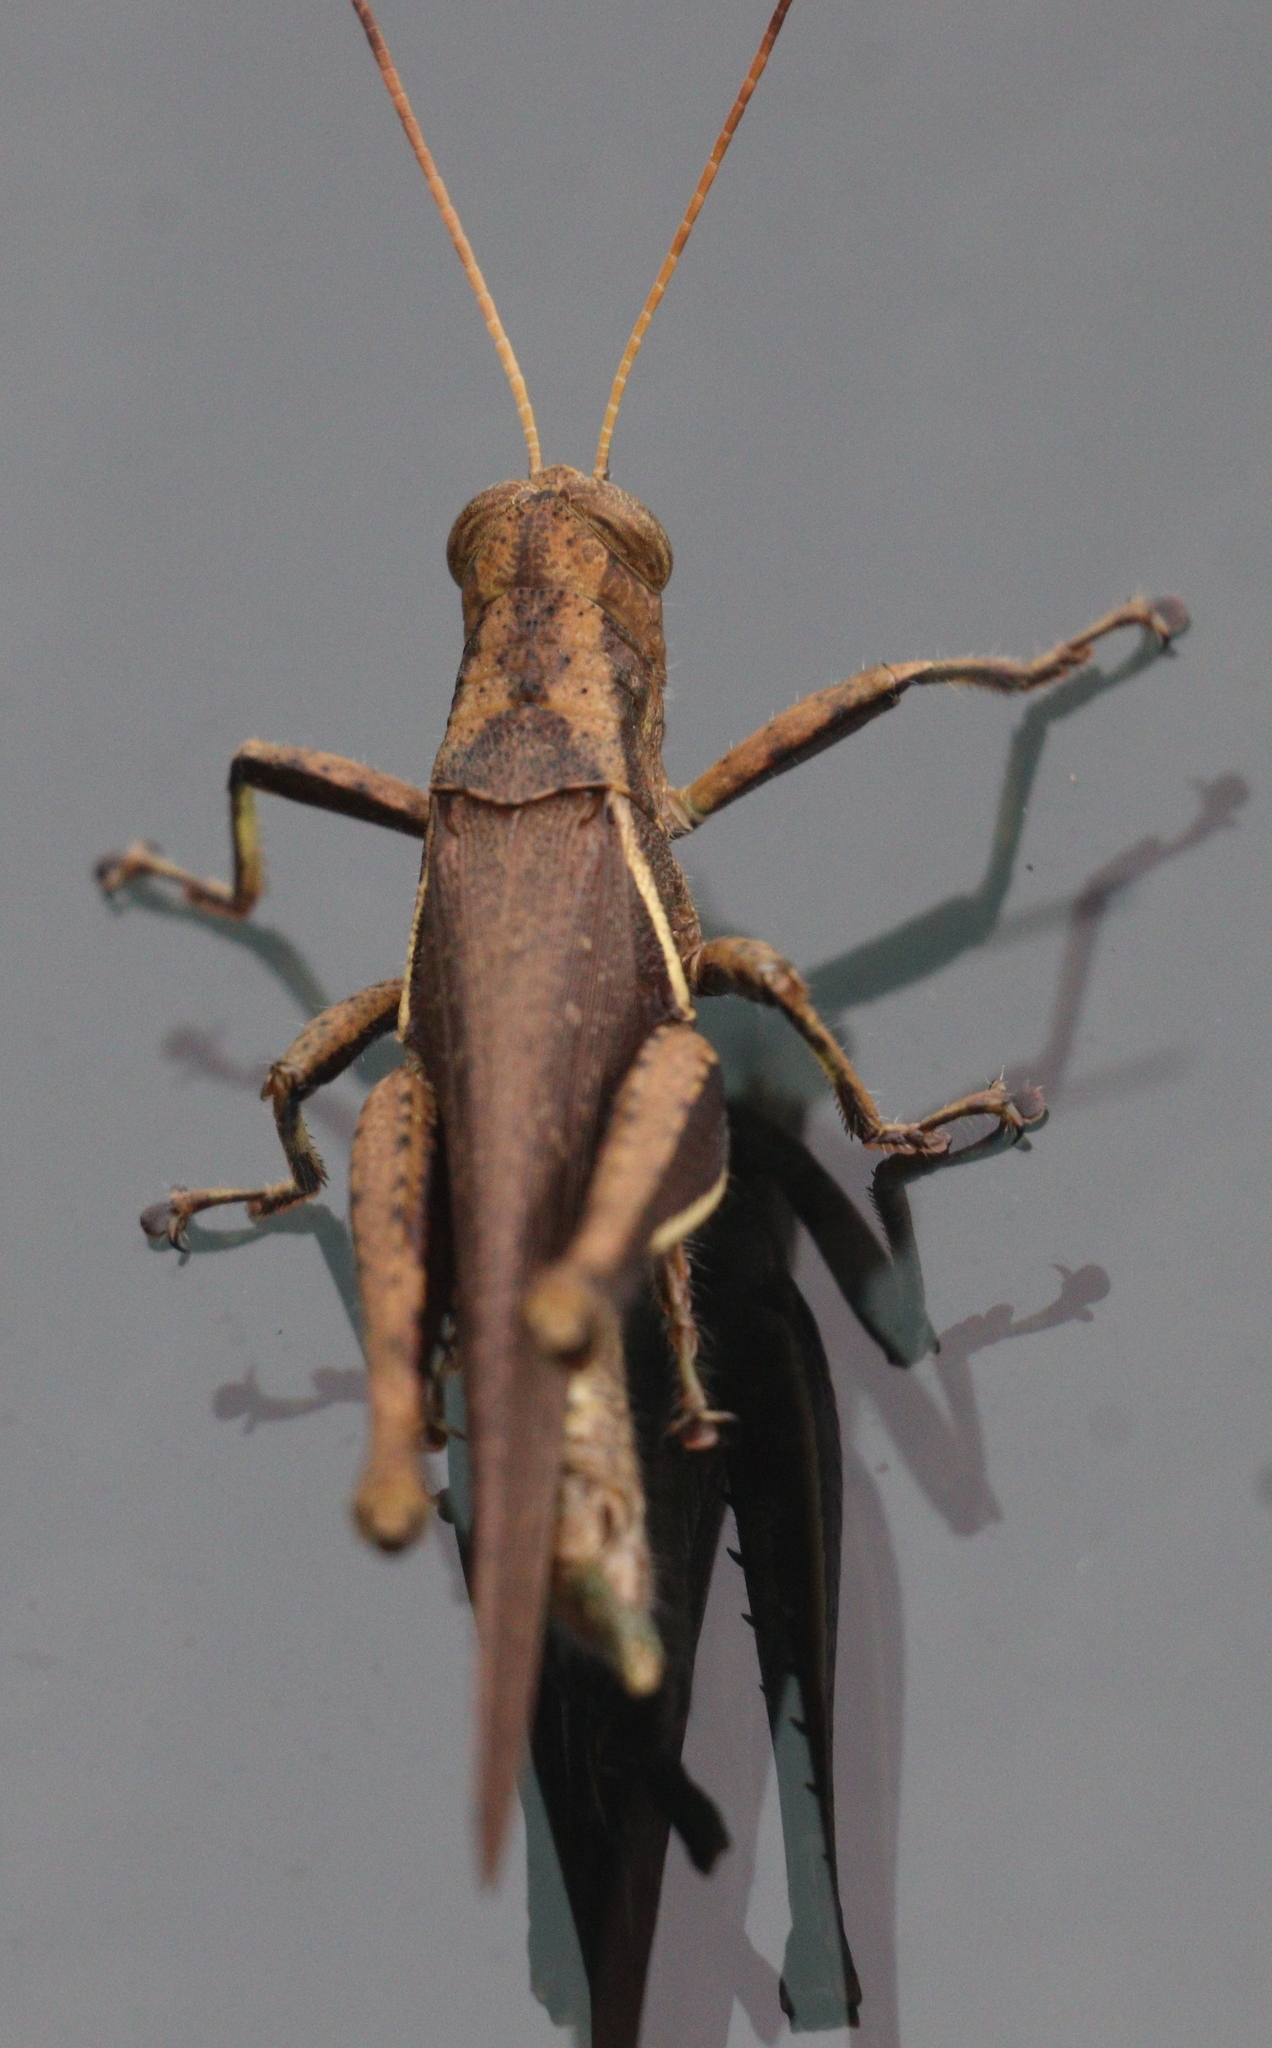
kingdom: Animalia
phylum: Arthropoda
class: Insecta
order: Orthoptera
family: Acrididae
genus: Abracris
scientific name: Abracris flavolineata
